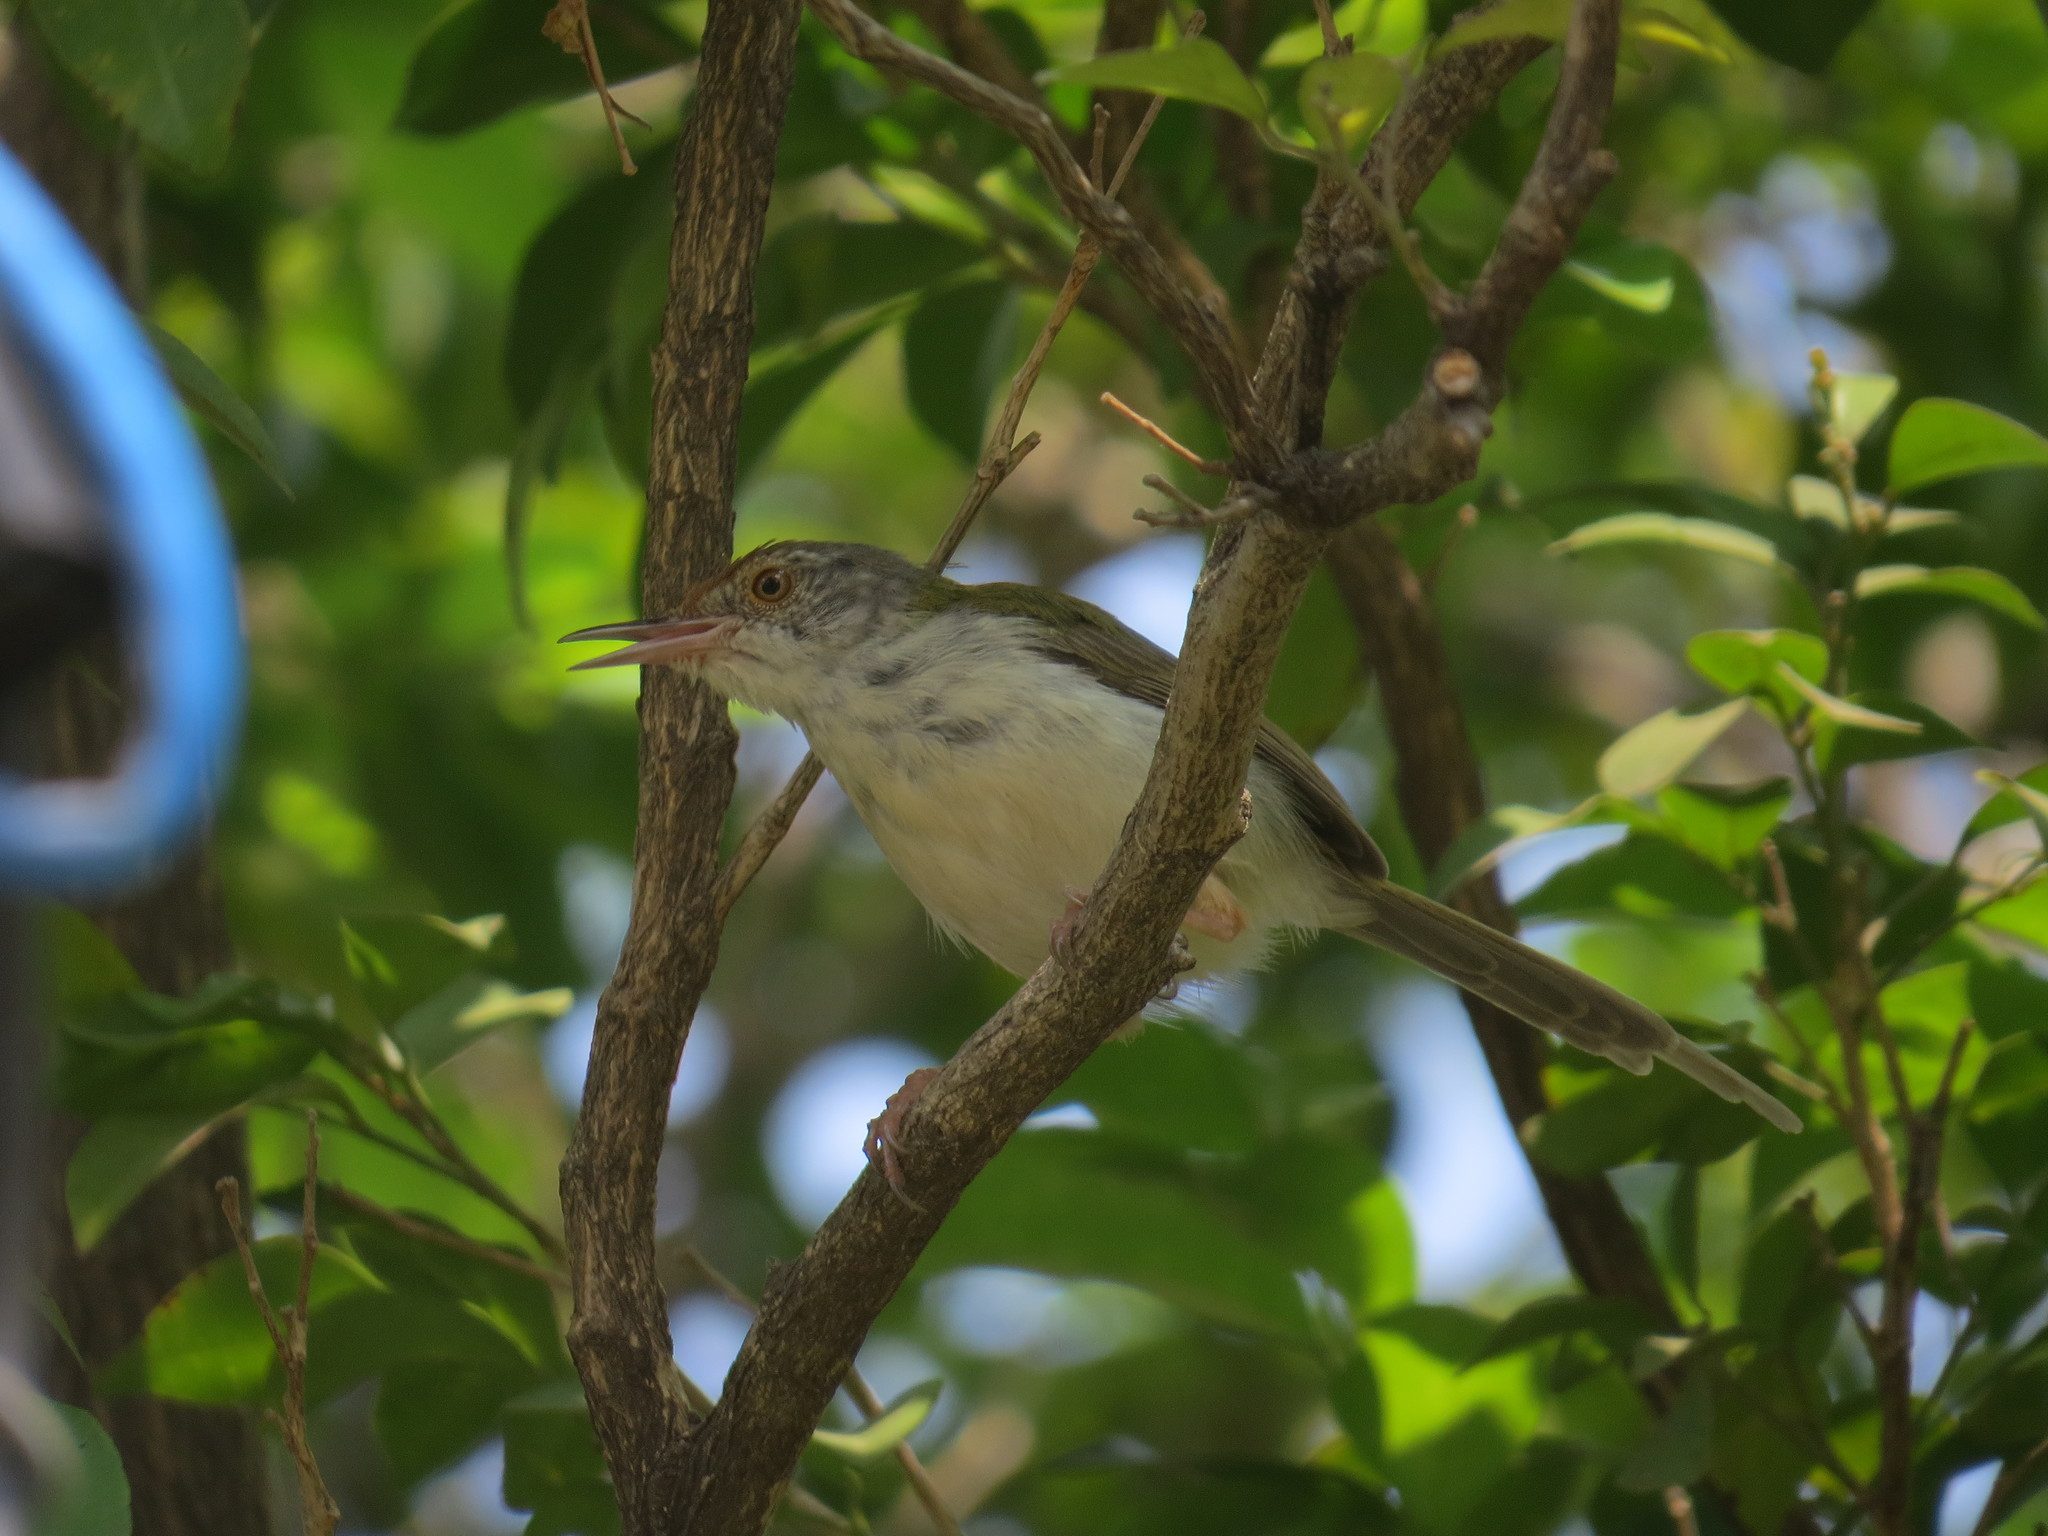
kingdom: Animalia
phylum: Chordata
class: Aves
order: Passeriformes
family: Cisticolidae
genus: Orthotomus
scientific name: Orthotomus sutorius
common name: Common tailorbird
